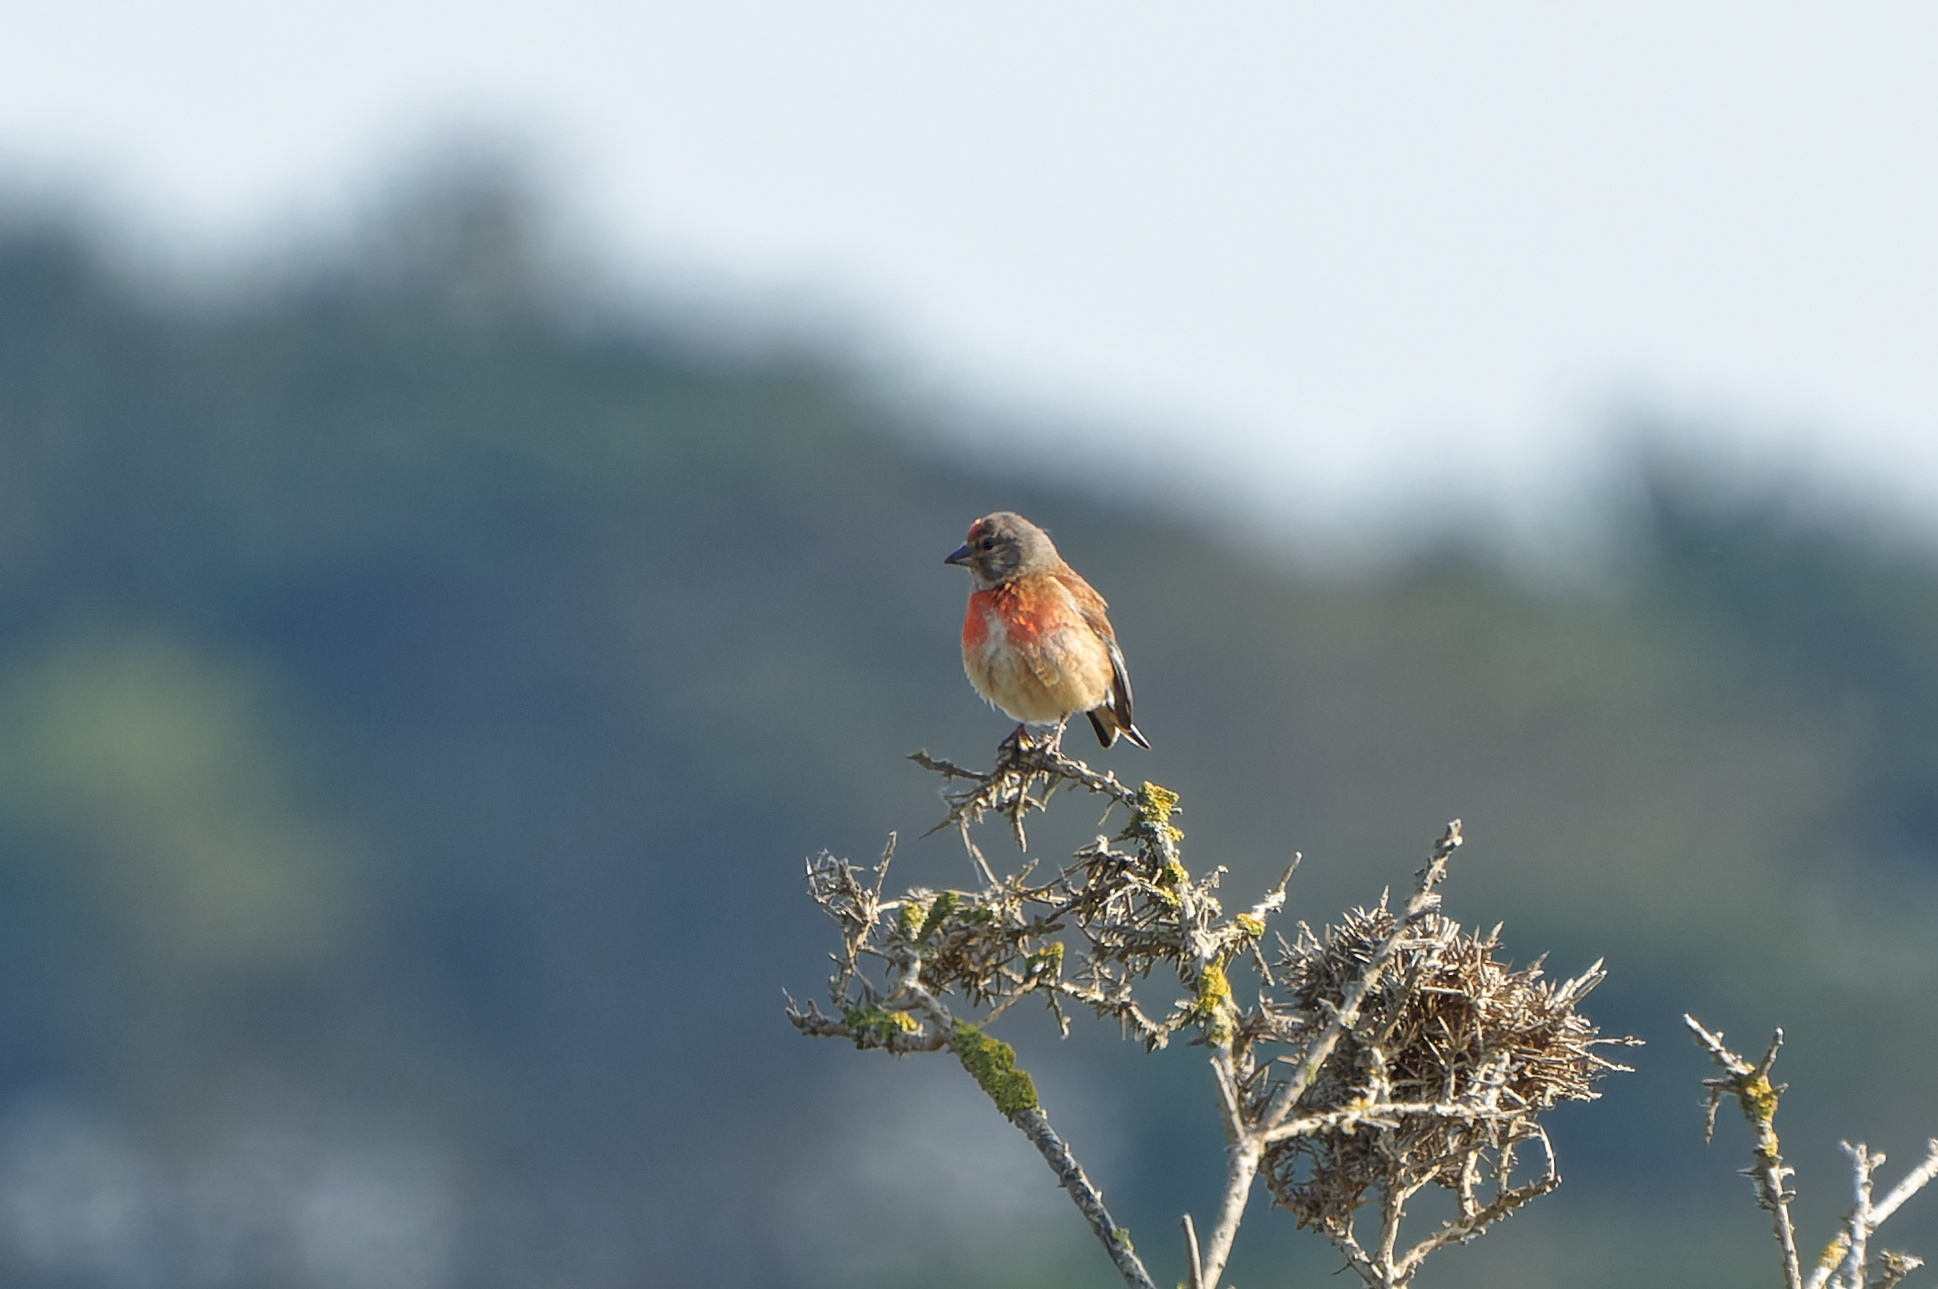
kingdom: Animalia
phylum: Chordata
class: Aves
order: Passeriformes
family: Fringillidae
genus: Linaria
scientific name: Linaria cannabina
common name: Common linnet
